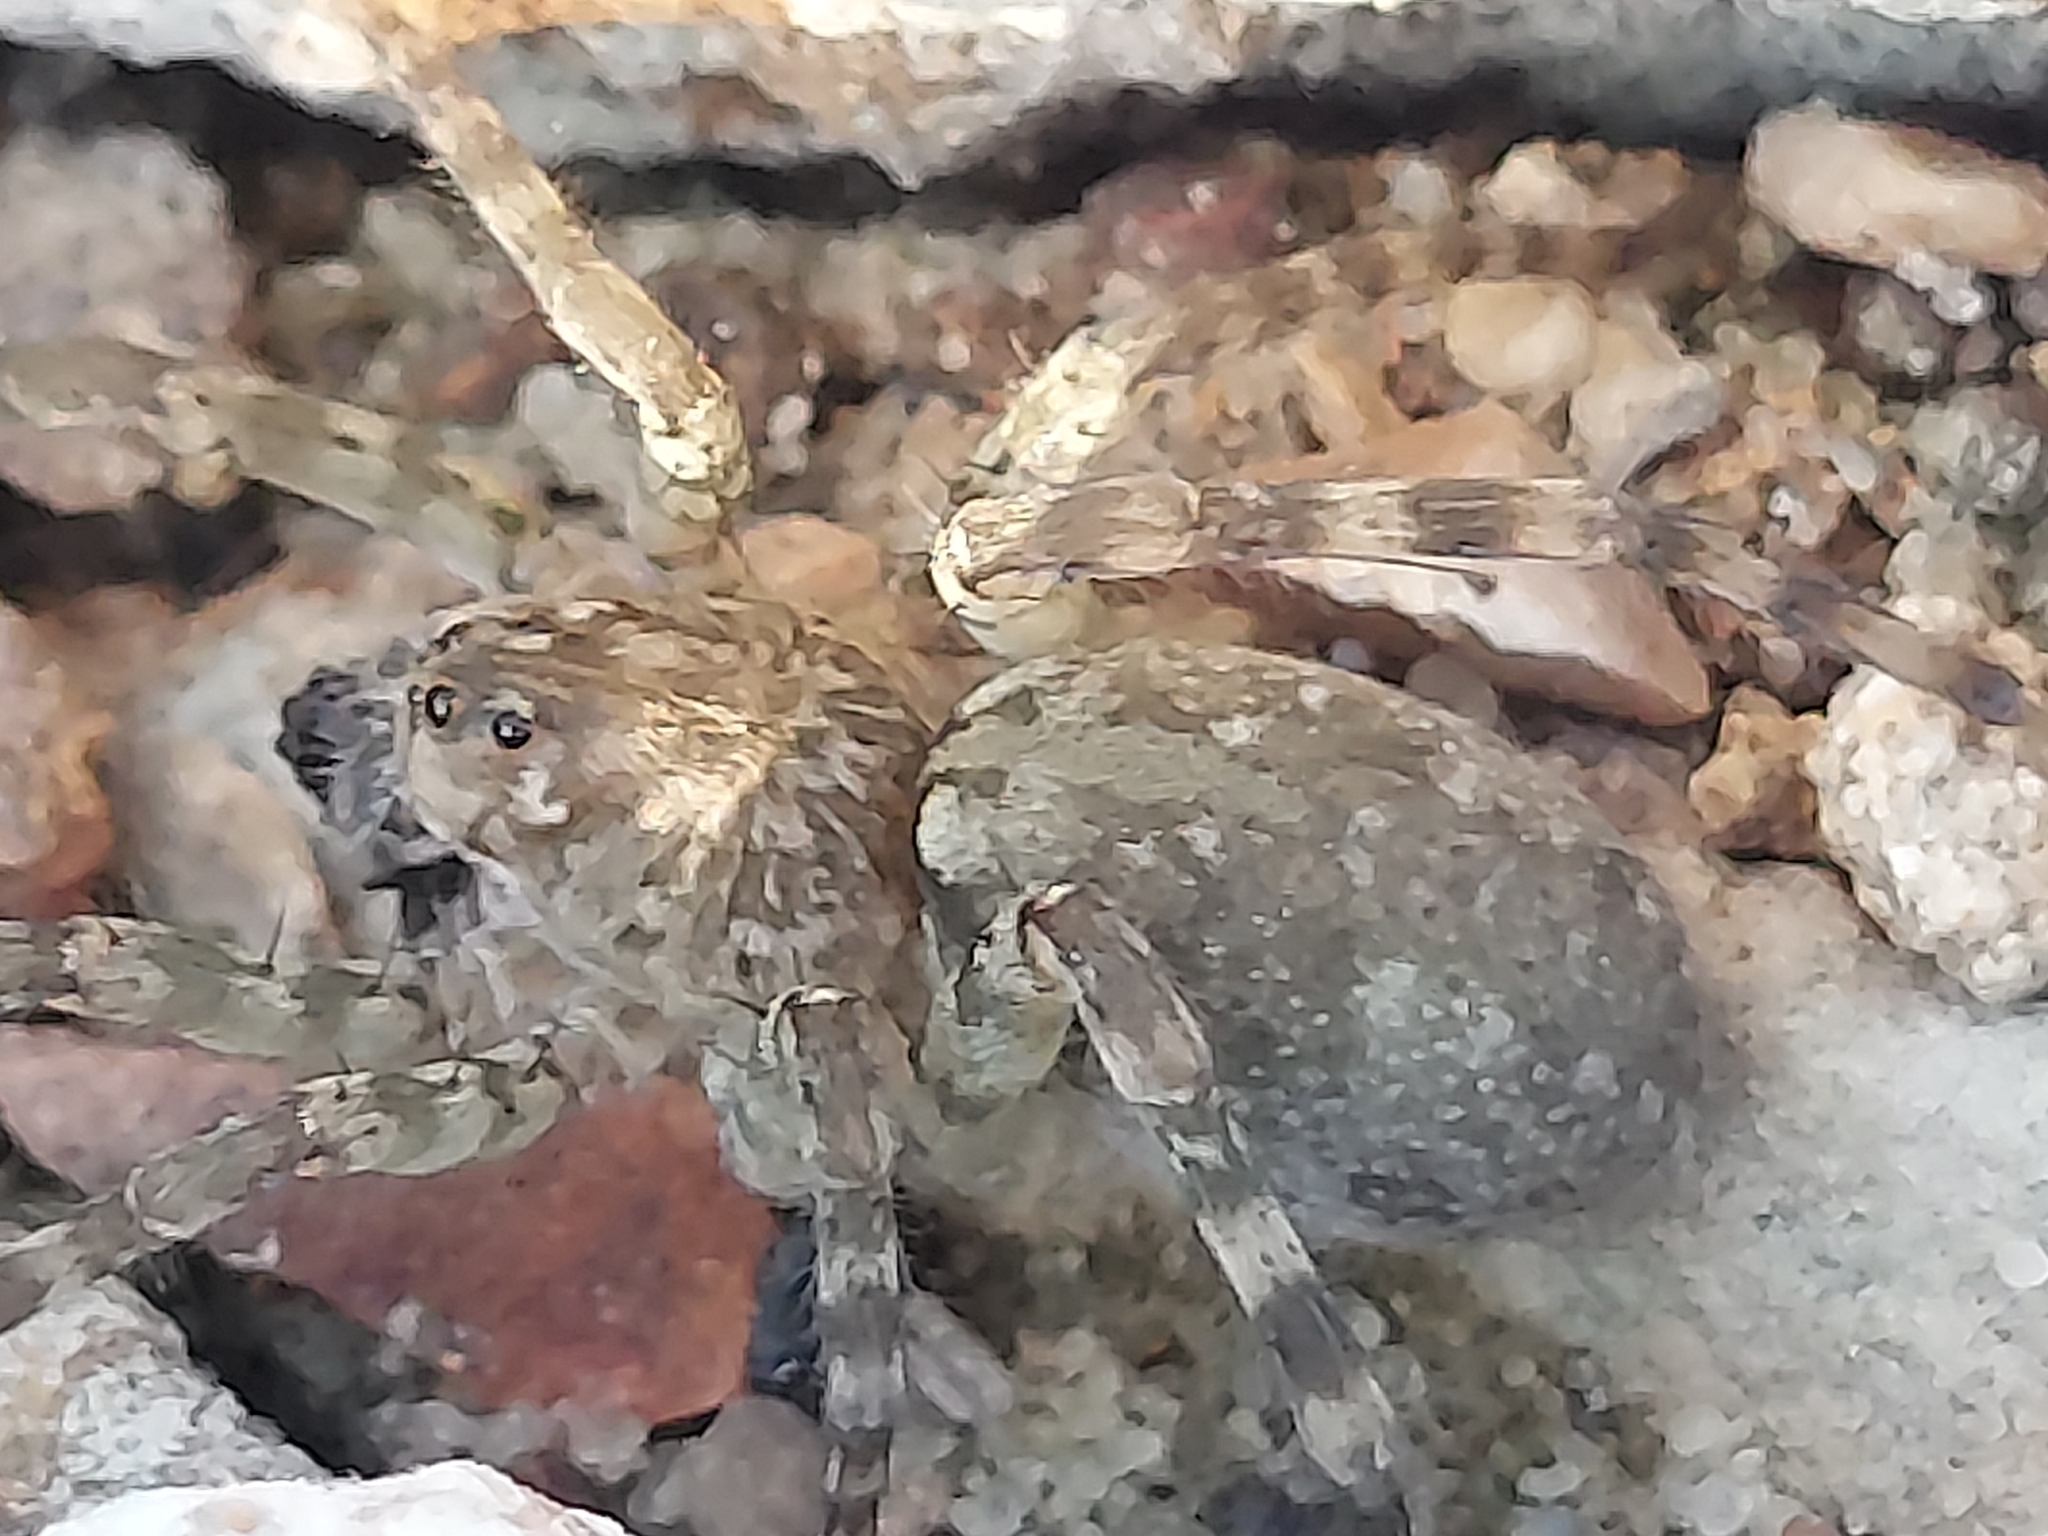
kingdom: Animalia
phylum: Arthropoda
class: Arachnida
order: Araneae
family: Lycosidae
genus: Arctosa
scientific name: Arctosa littoralis
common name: Wolf spiders
